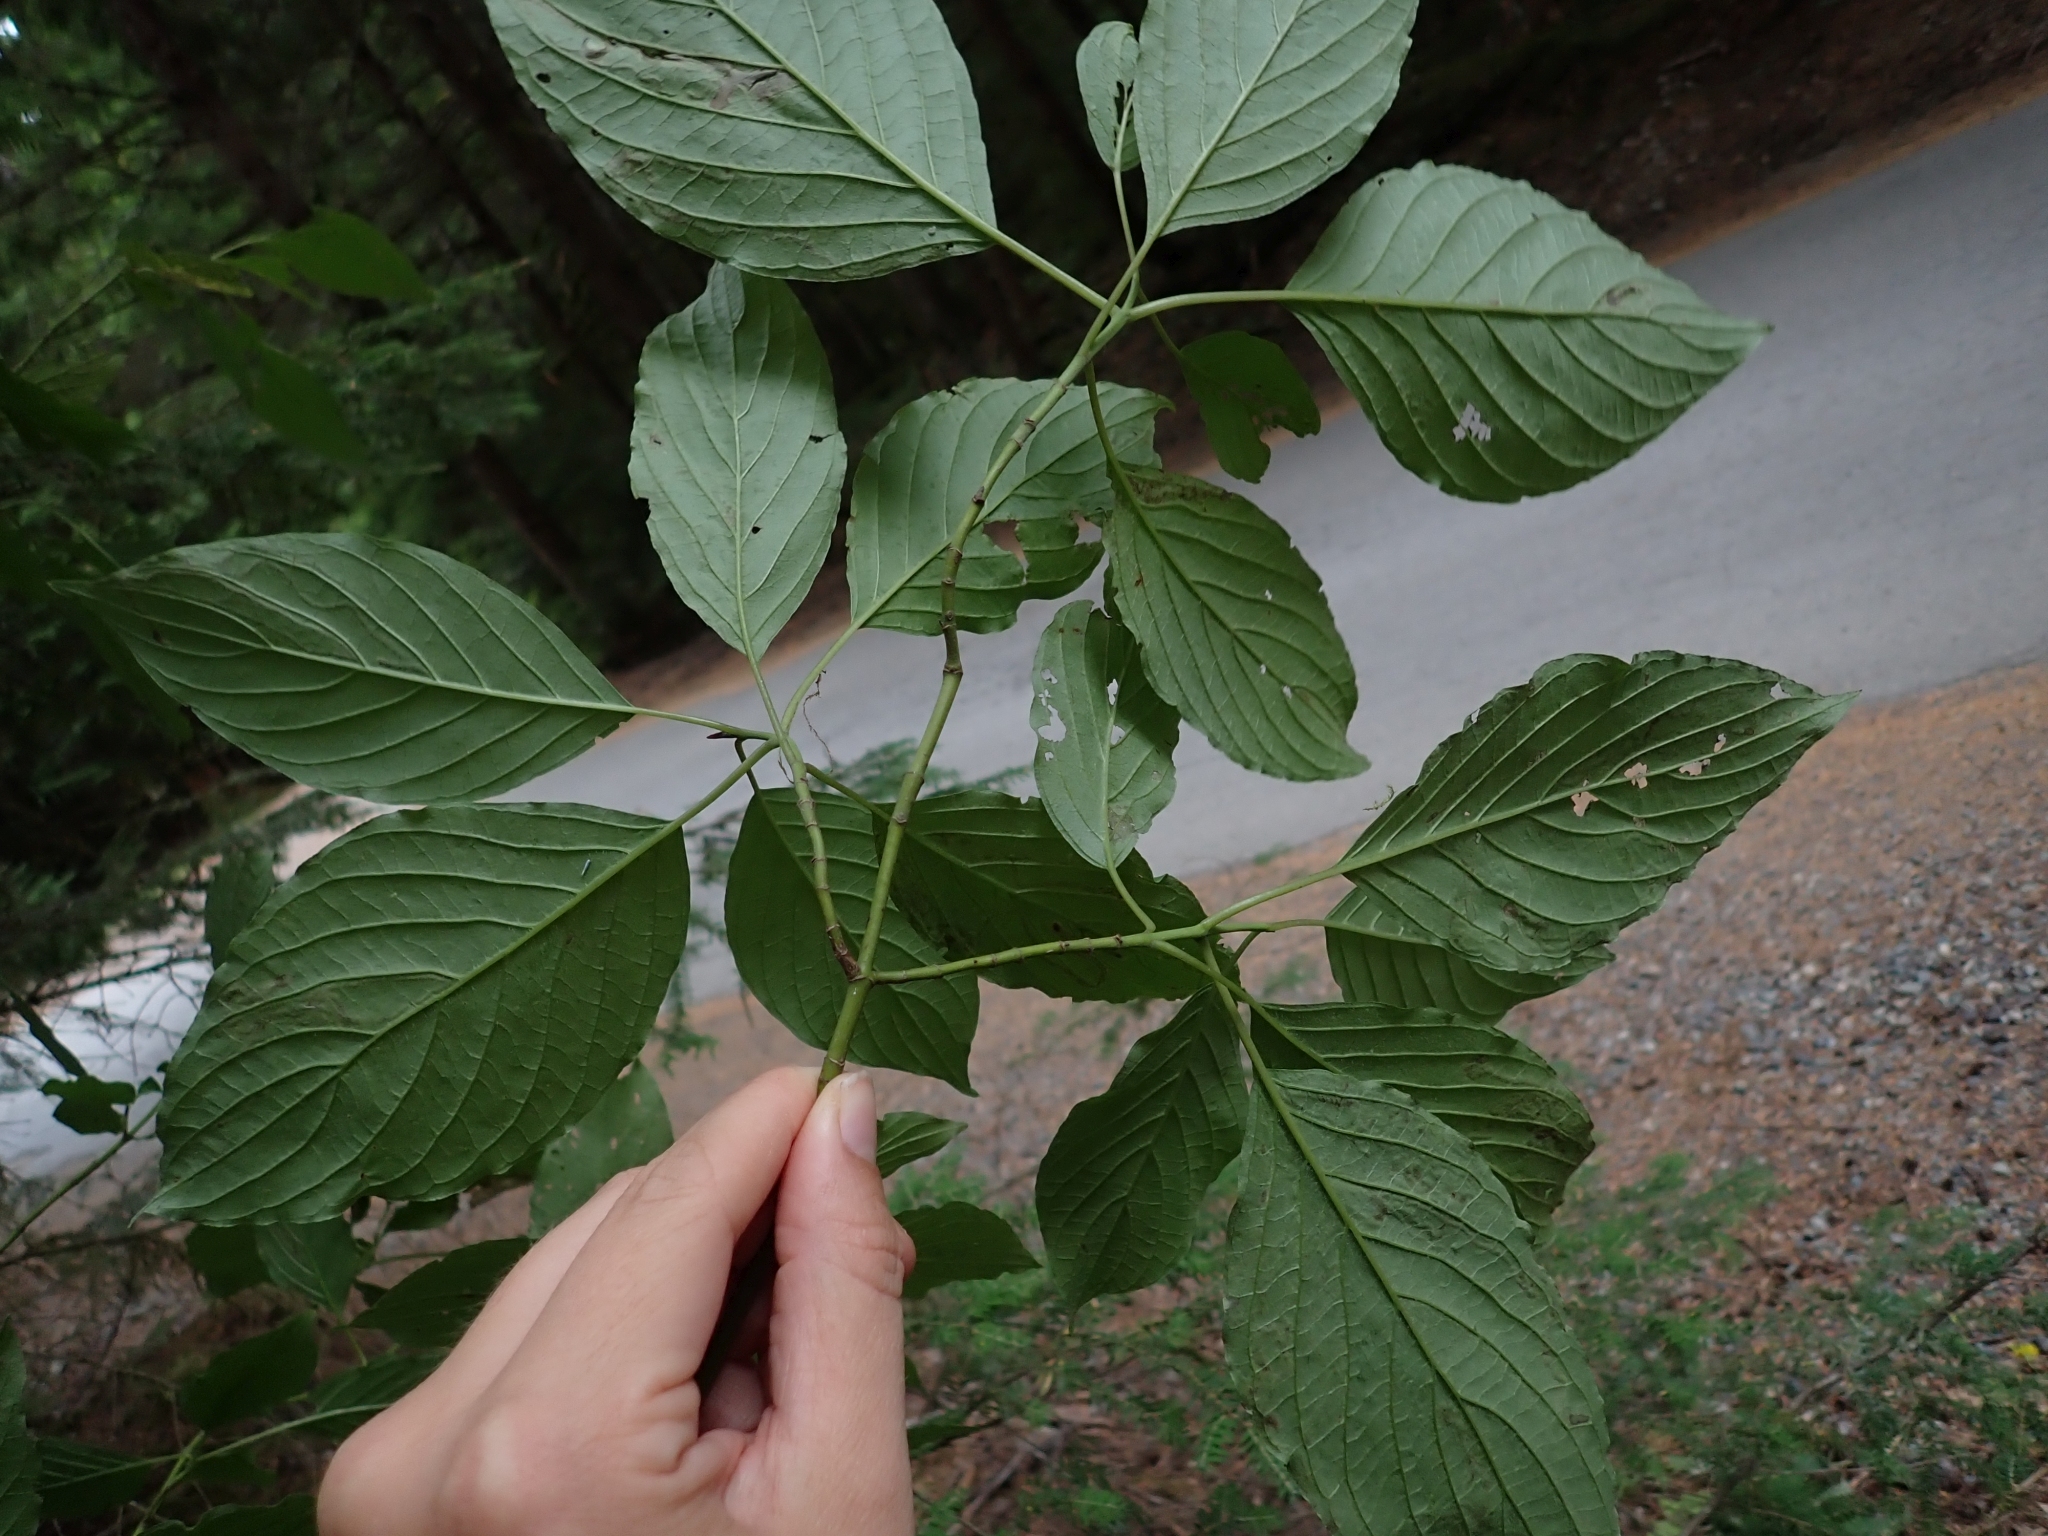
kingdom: Plantae
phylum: Tracheophyta
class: Magnoliopsida
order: Cornales
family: Cornaceae
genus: Cornus
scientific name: Cornus sericea
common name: Red-osier dogwood
